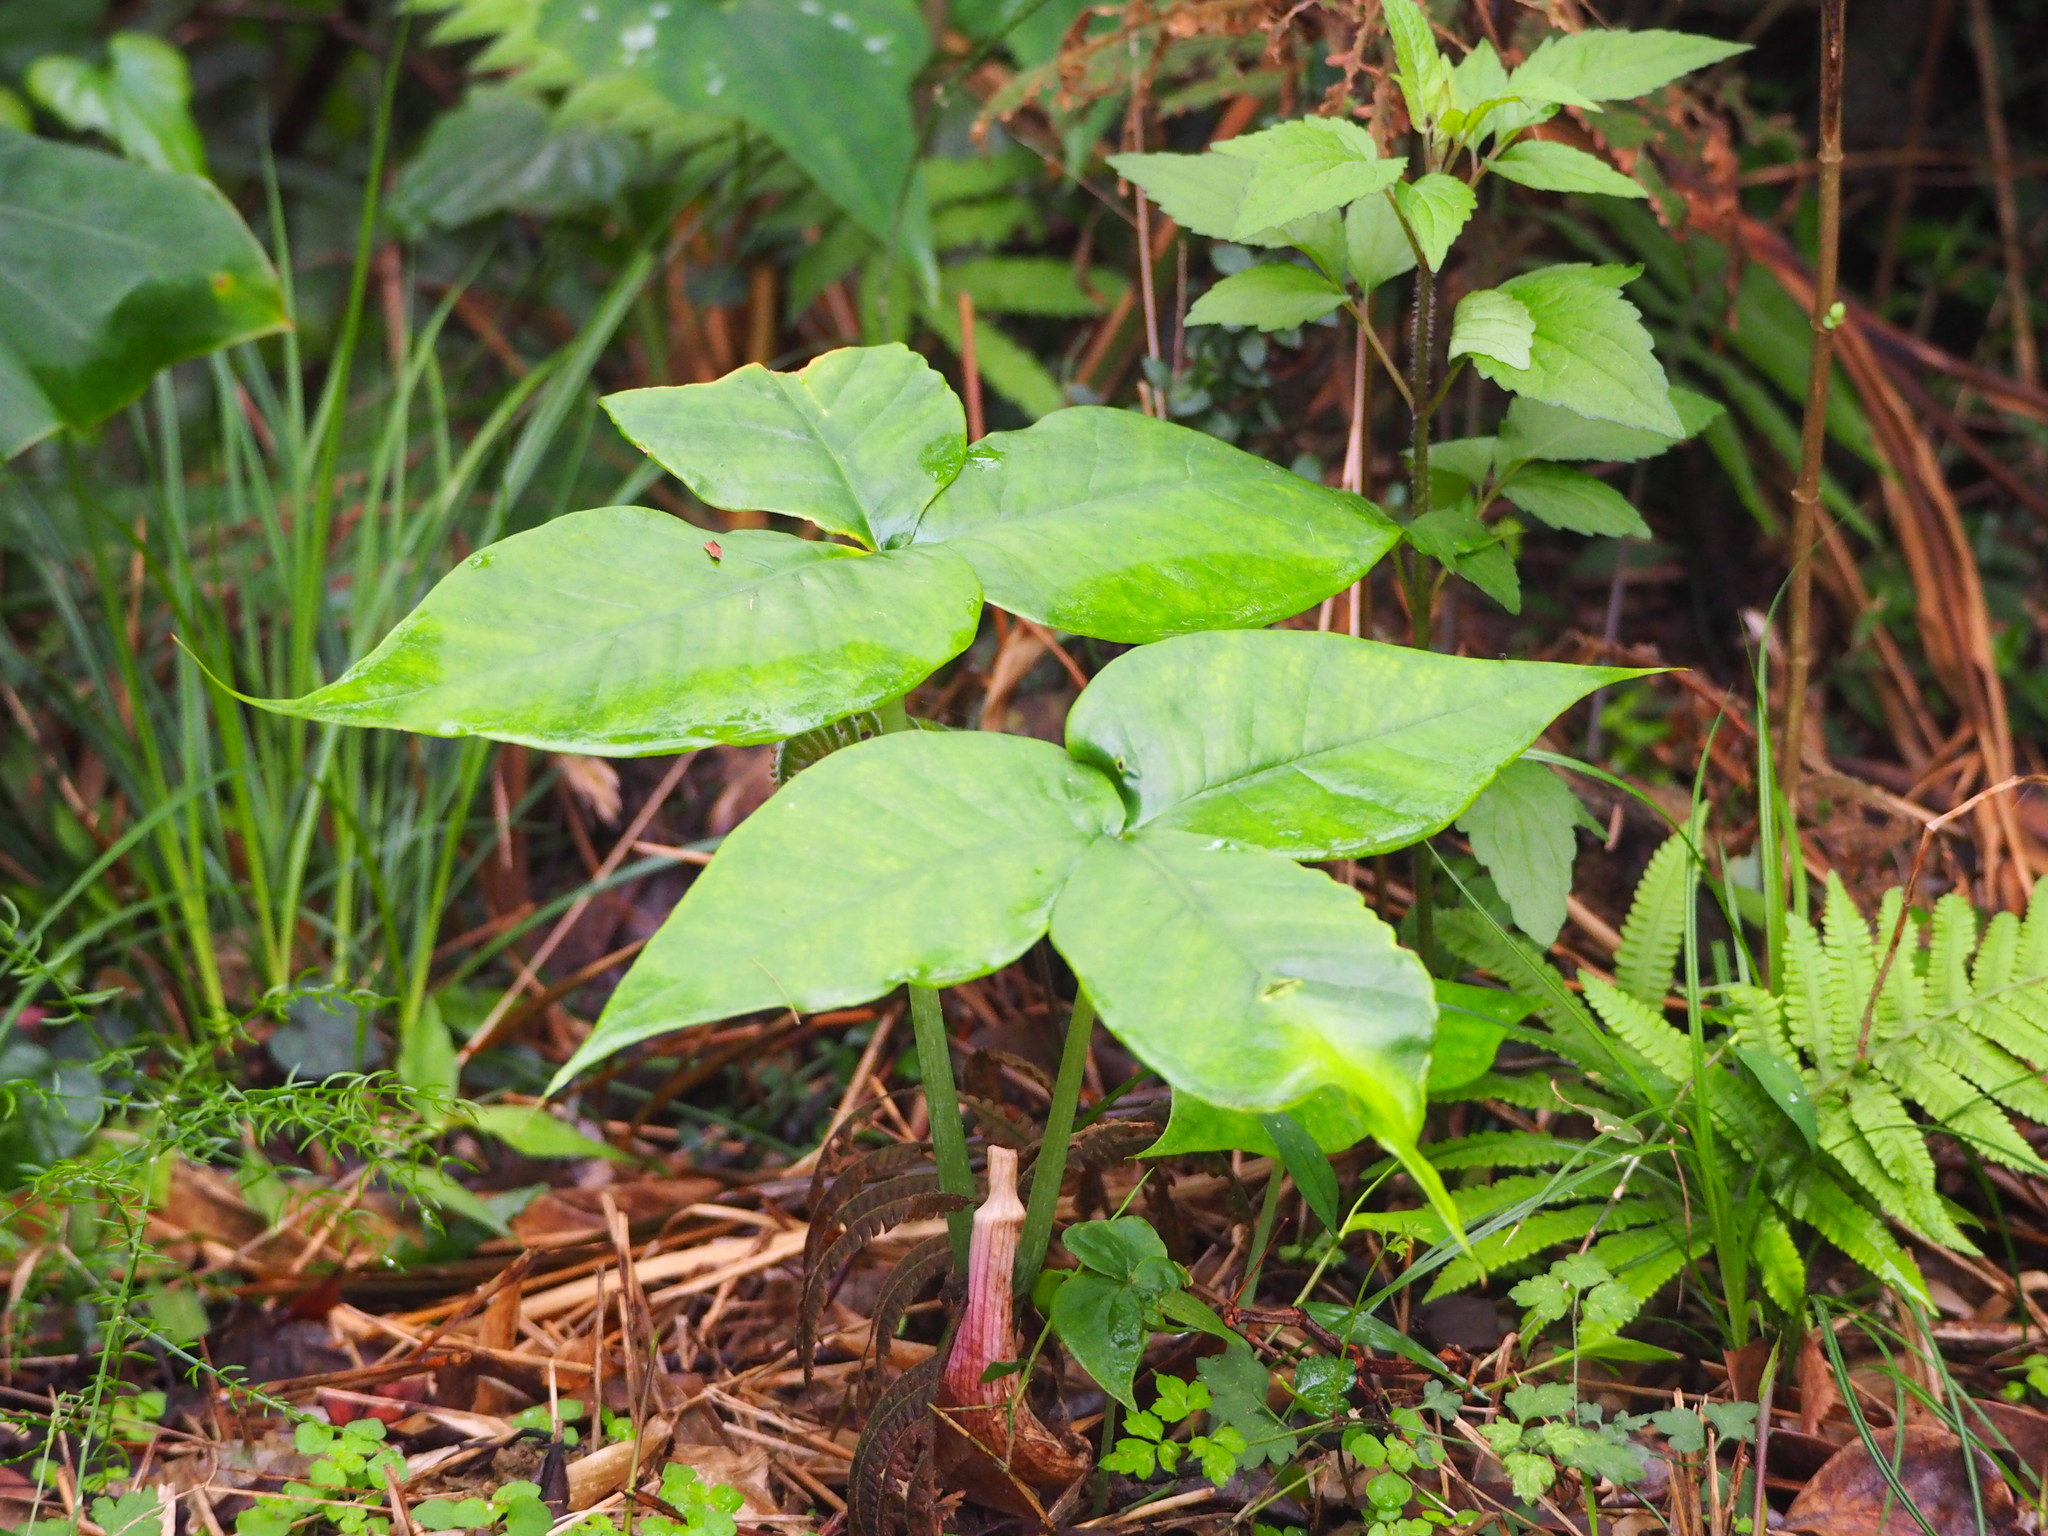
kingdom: Plantae
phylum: Tracheophyta
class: Liliopsida
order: Alismatales
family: Araceae
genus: Arisaema
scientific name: Arisaema ringens
